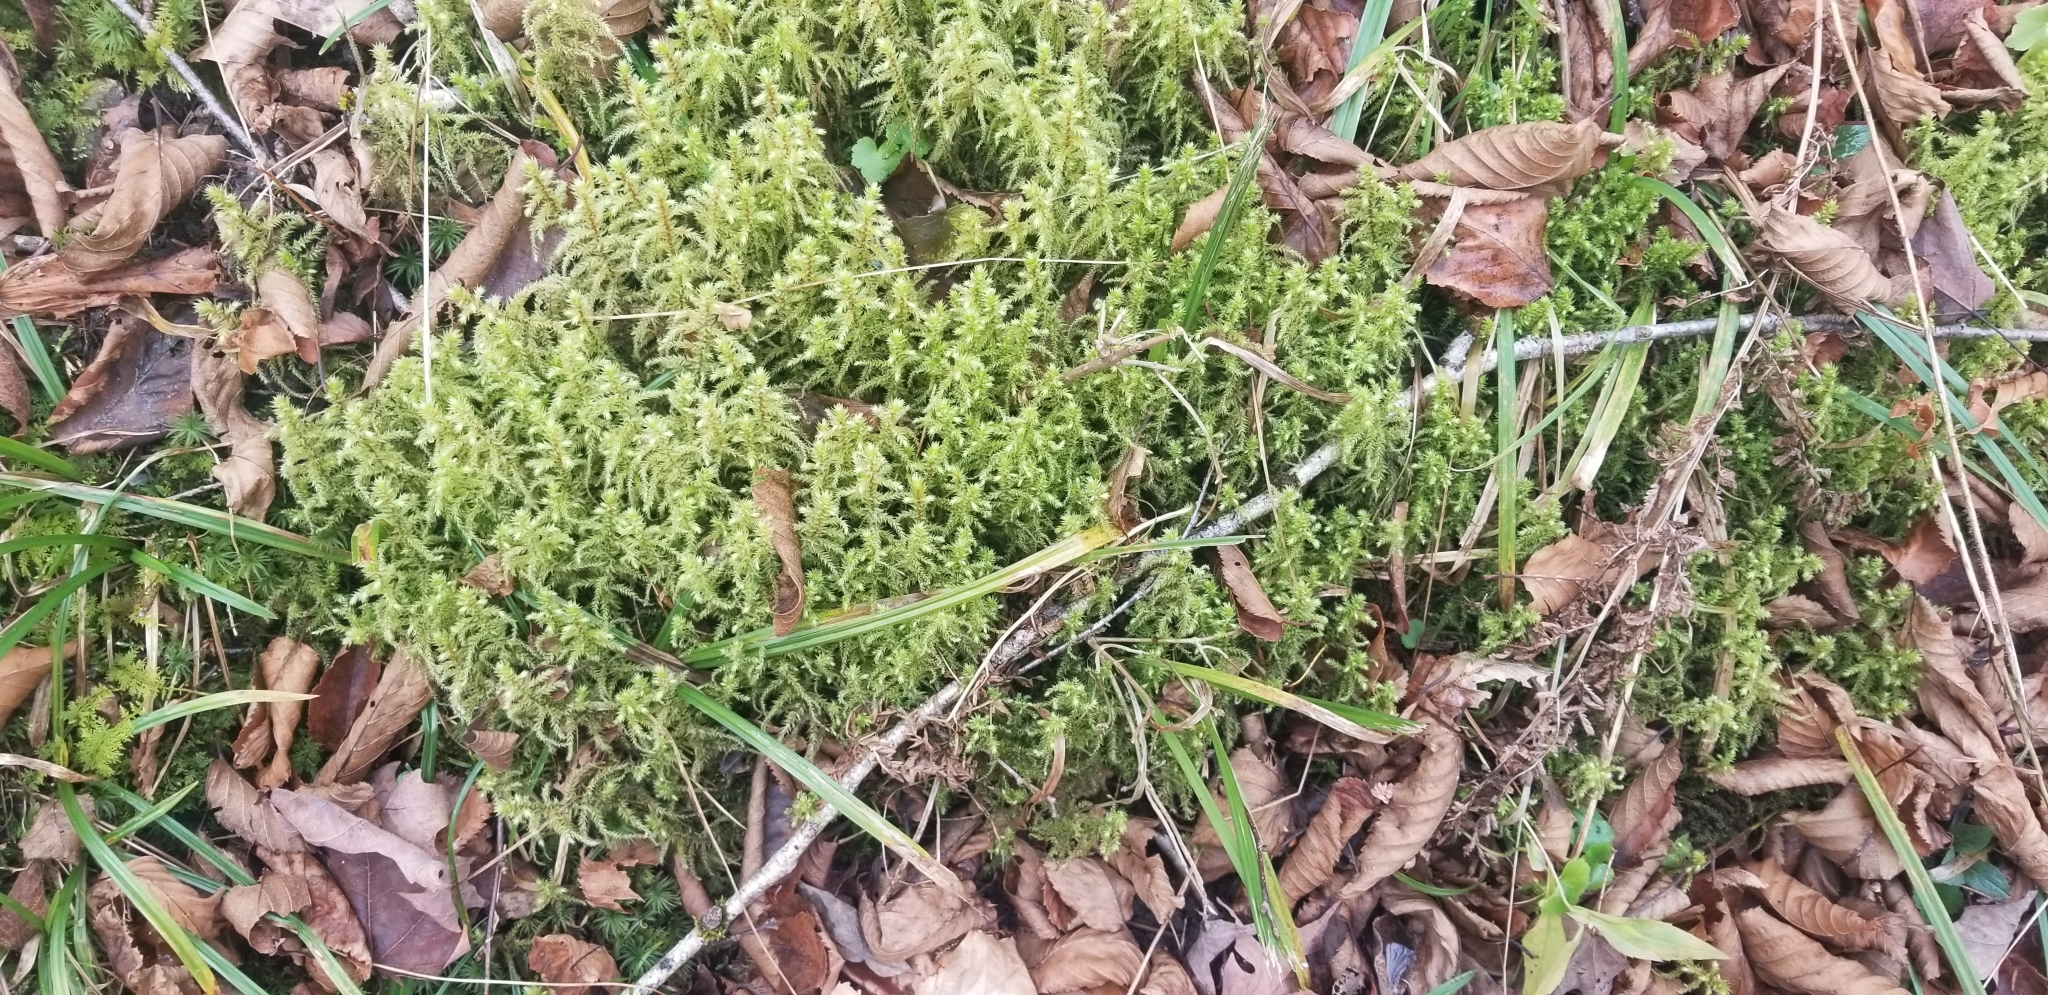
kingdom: Plantae
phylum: Bryophyta
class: Bryopsida
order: Hypnales
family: Hylocomiaceae
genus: Hylocomiadelphus
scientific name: Hylocomiadelphus triquetrus
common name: Rough goose neck moss
